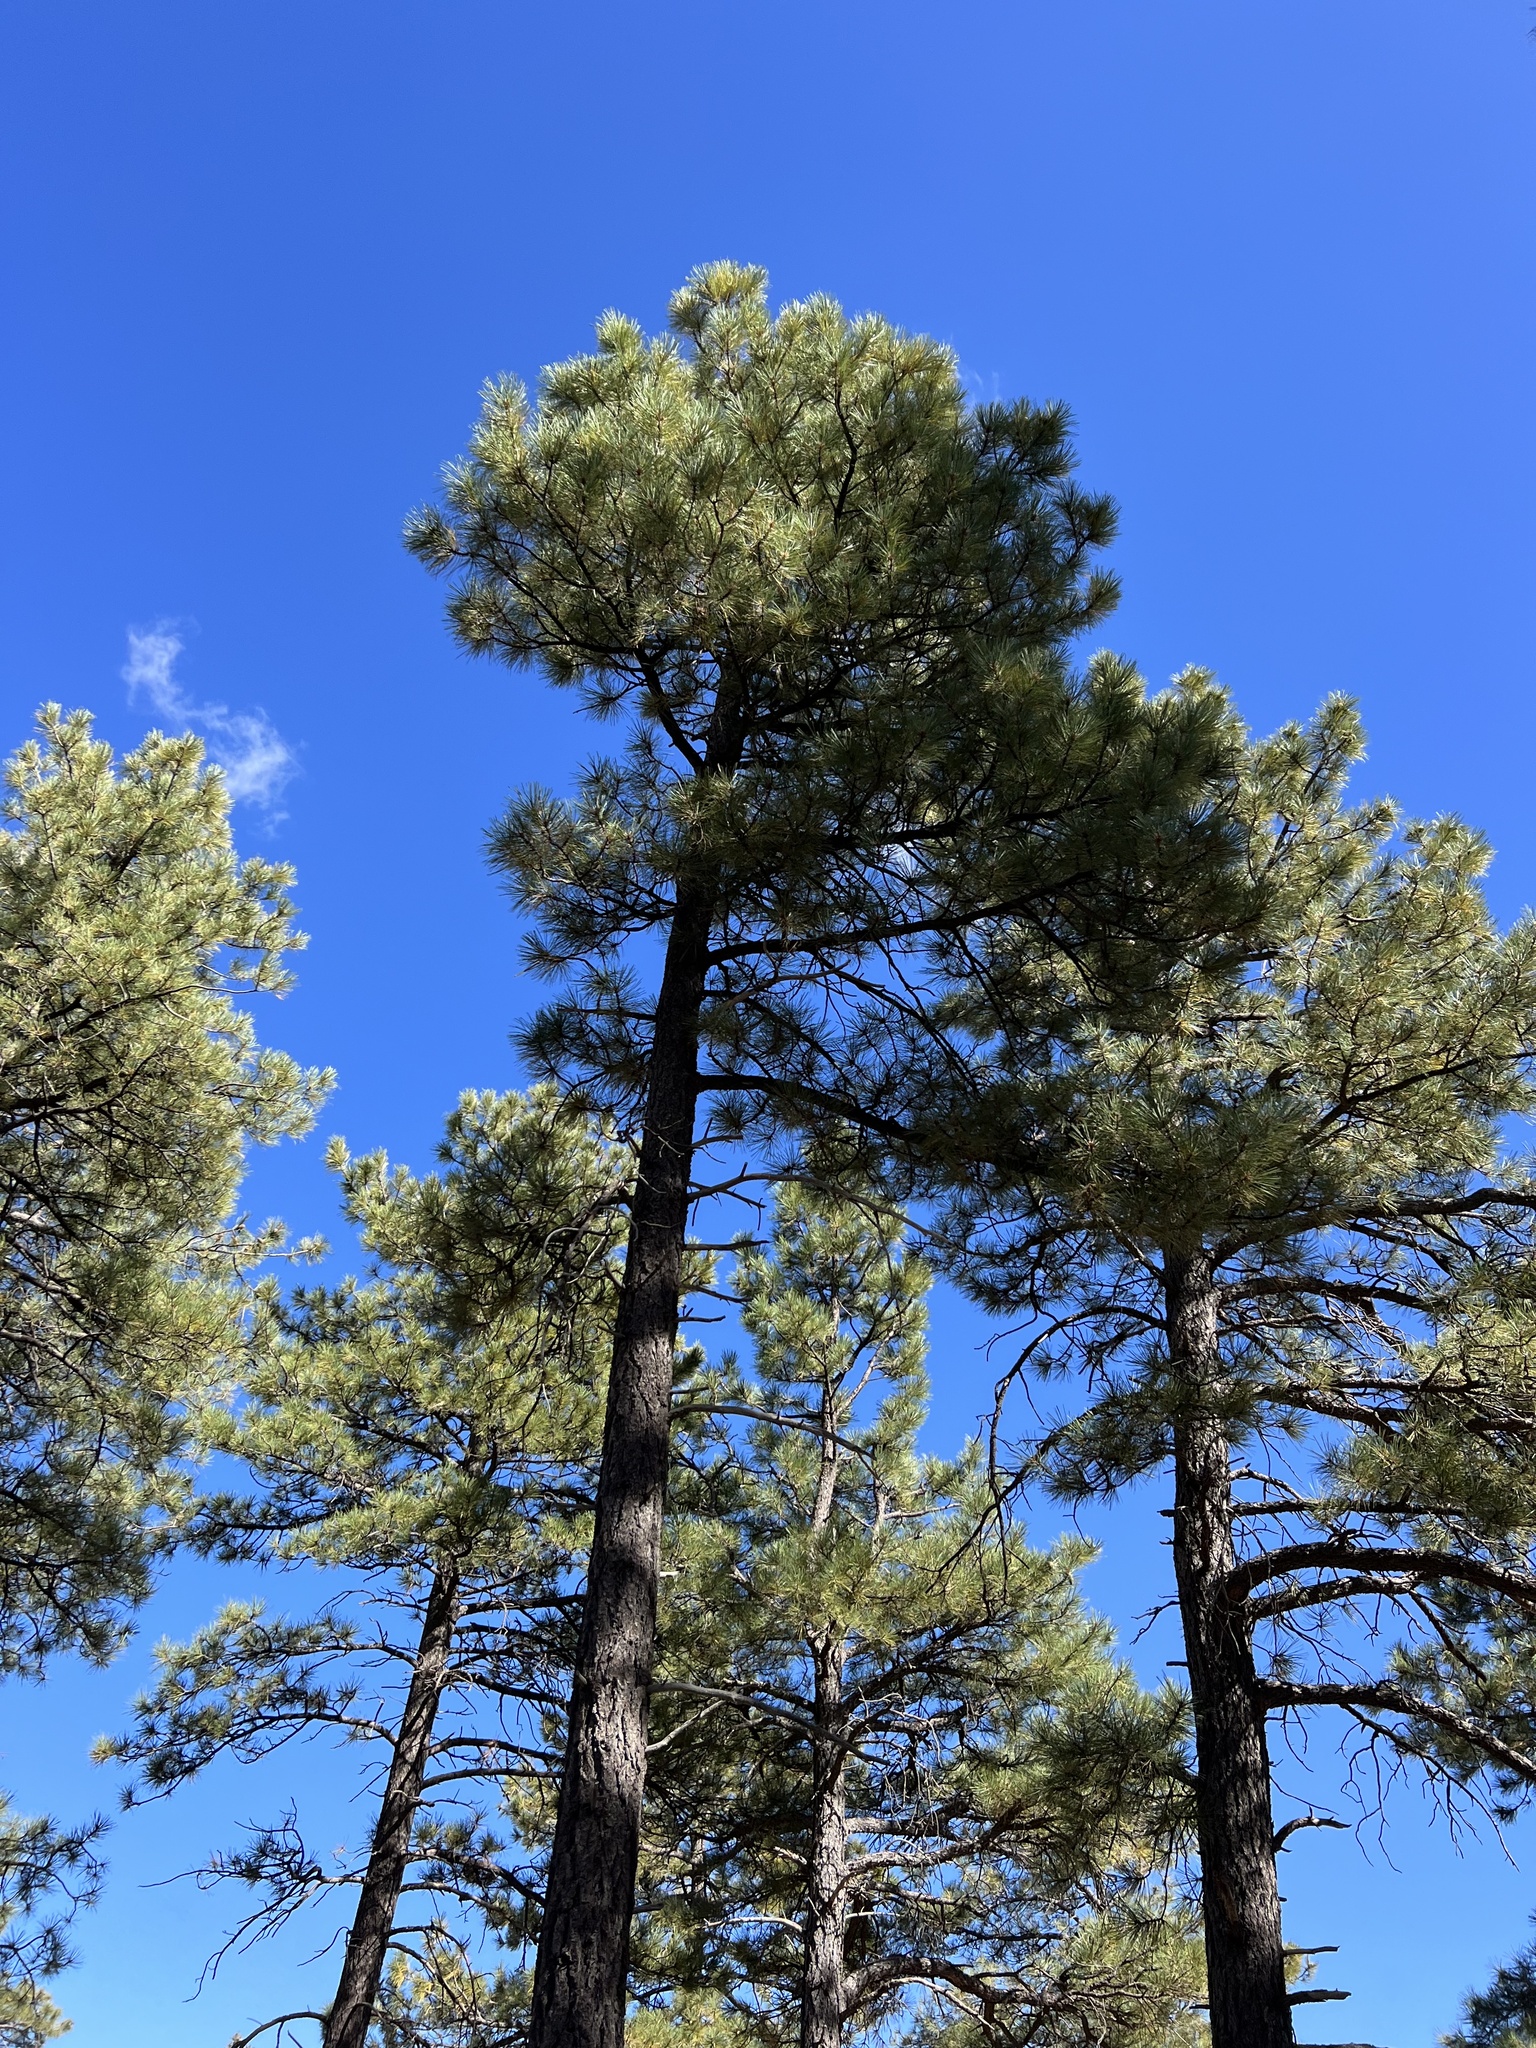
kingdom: Plantae
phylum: Tracheophyta
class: Pinopsida
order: Pinales
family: Pinaceae
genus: Pinus
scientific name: Pinus ponderosa
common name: Western yellow-pine
